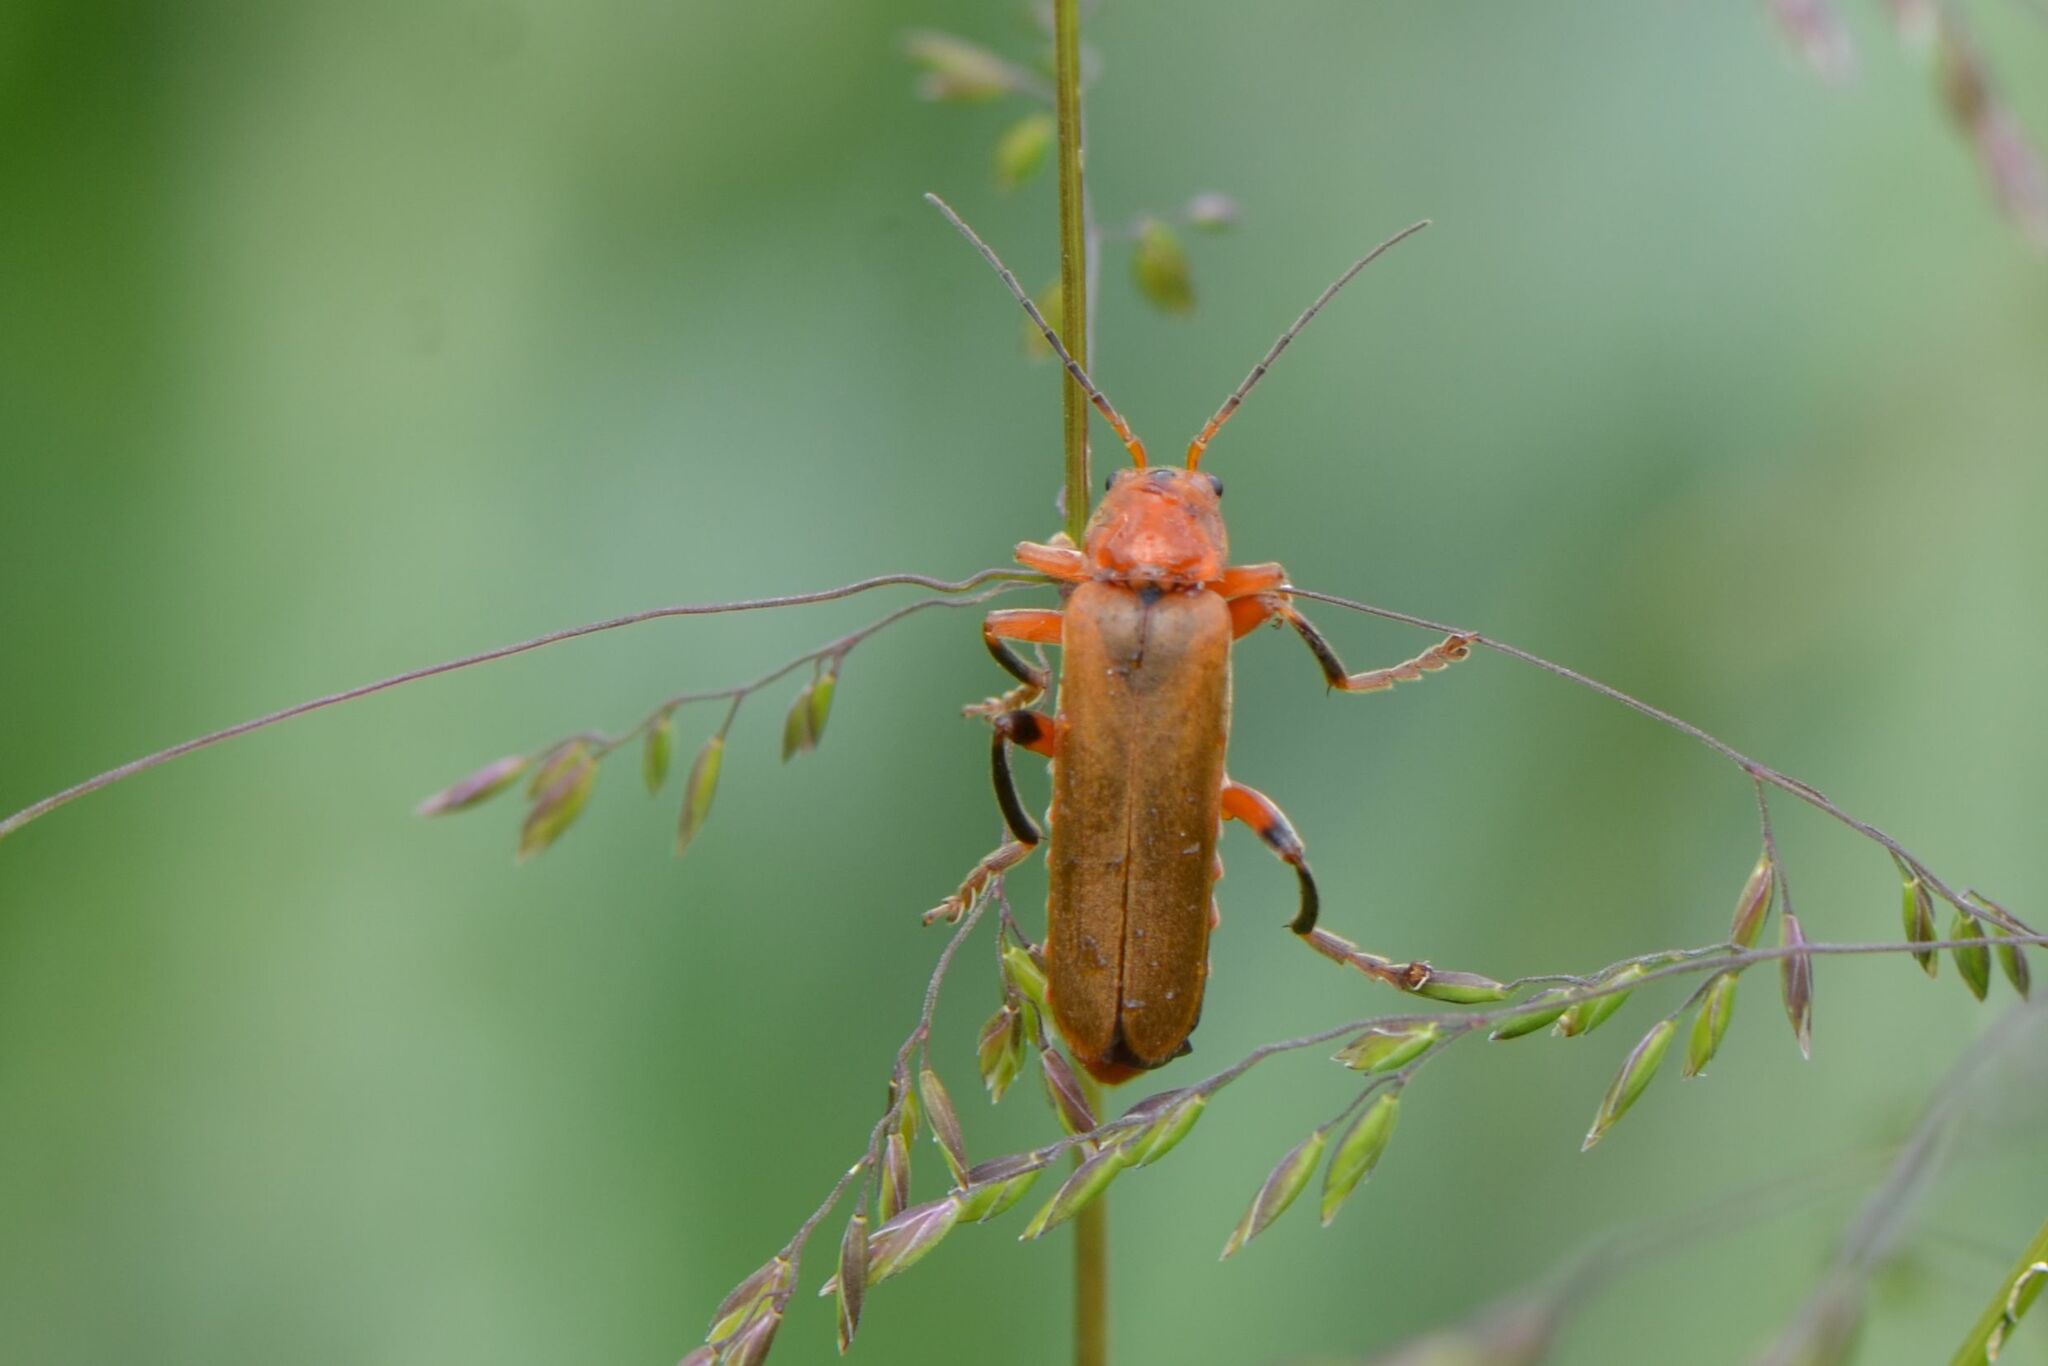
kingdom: Animalia
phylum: Arthropoda
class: Insecta
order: Coleoptera
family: Cantharidae
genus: Cantharis
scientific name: Cantharis livida
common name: Livid soldier beetle
